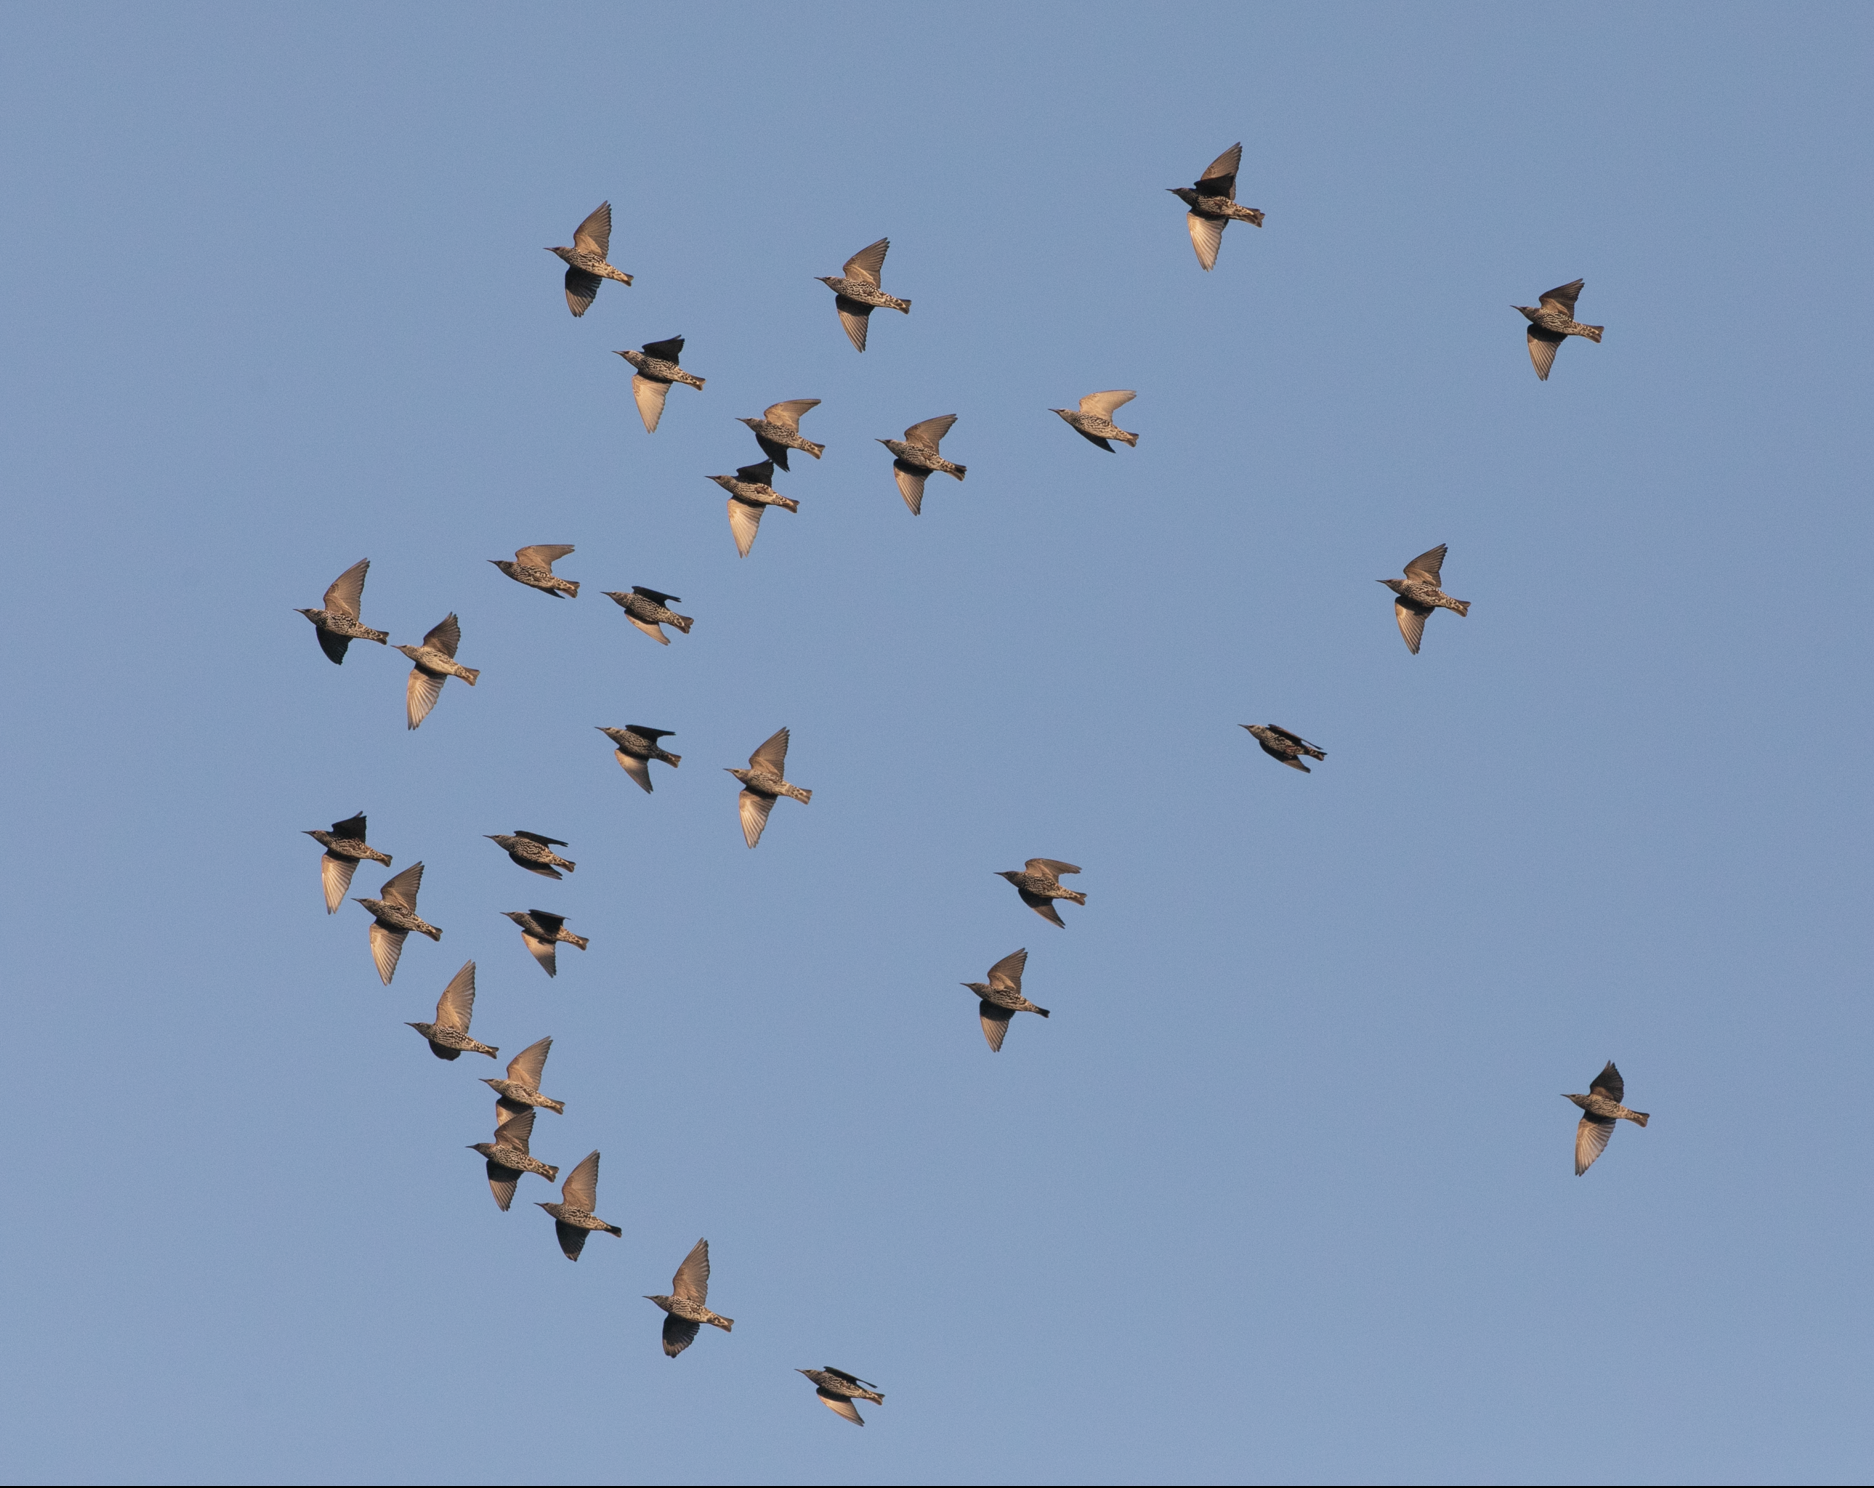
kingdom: Animalia
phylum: Chordata
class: Aves
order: Passeriformes
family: Sturnidae
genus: Sturnus
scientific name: Sturnus vulgaris
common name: Common starling
